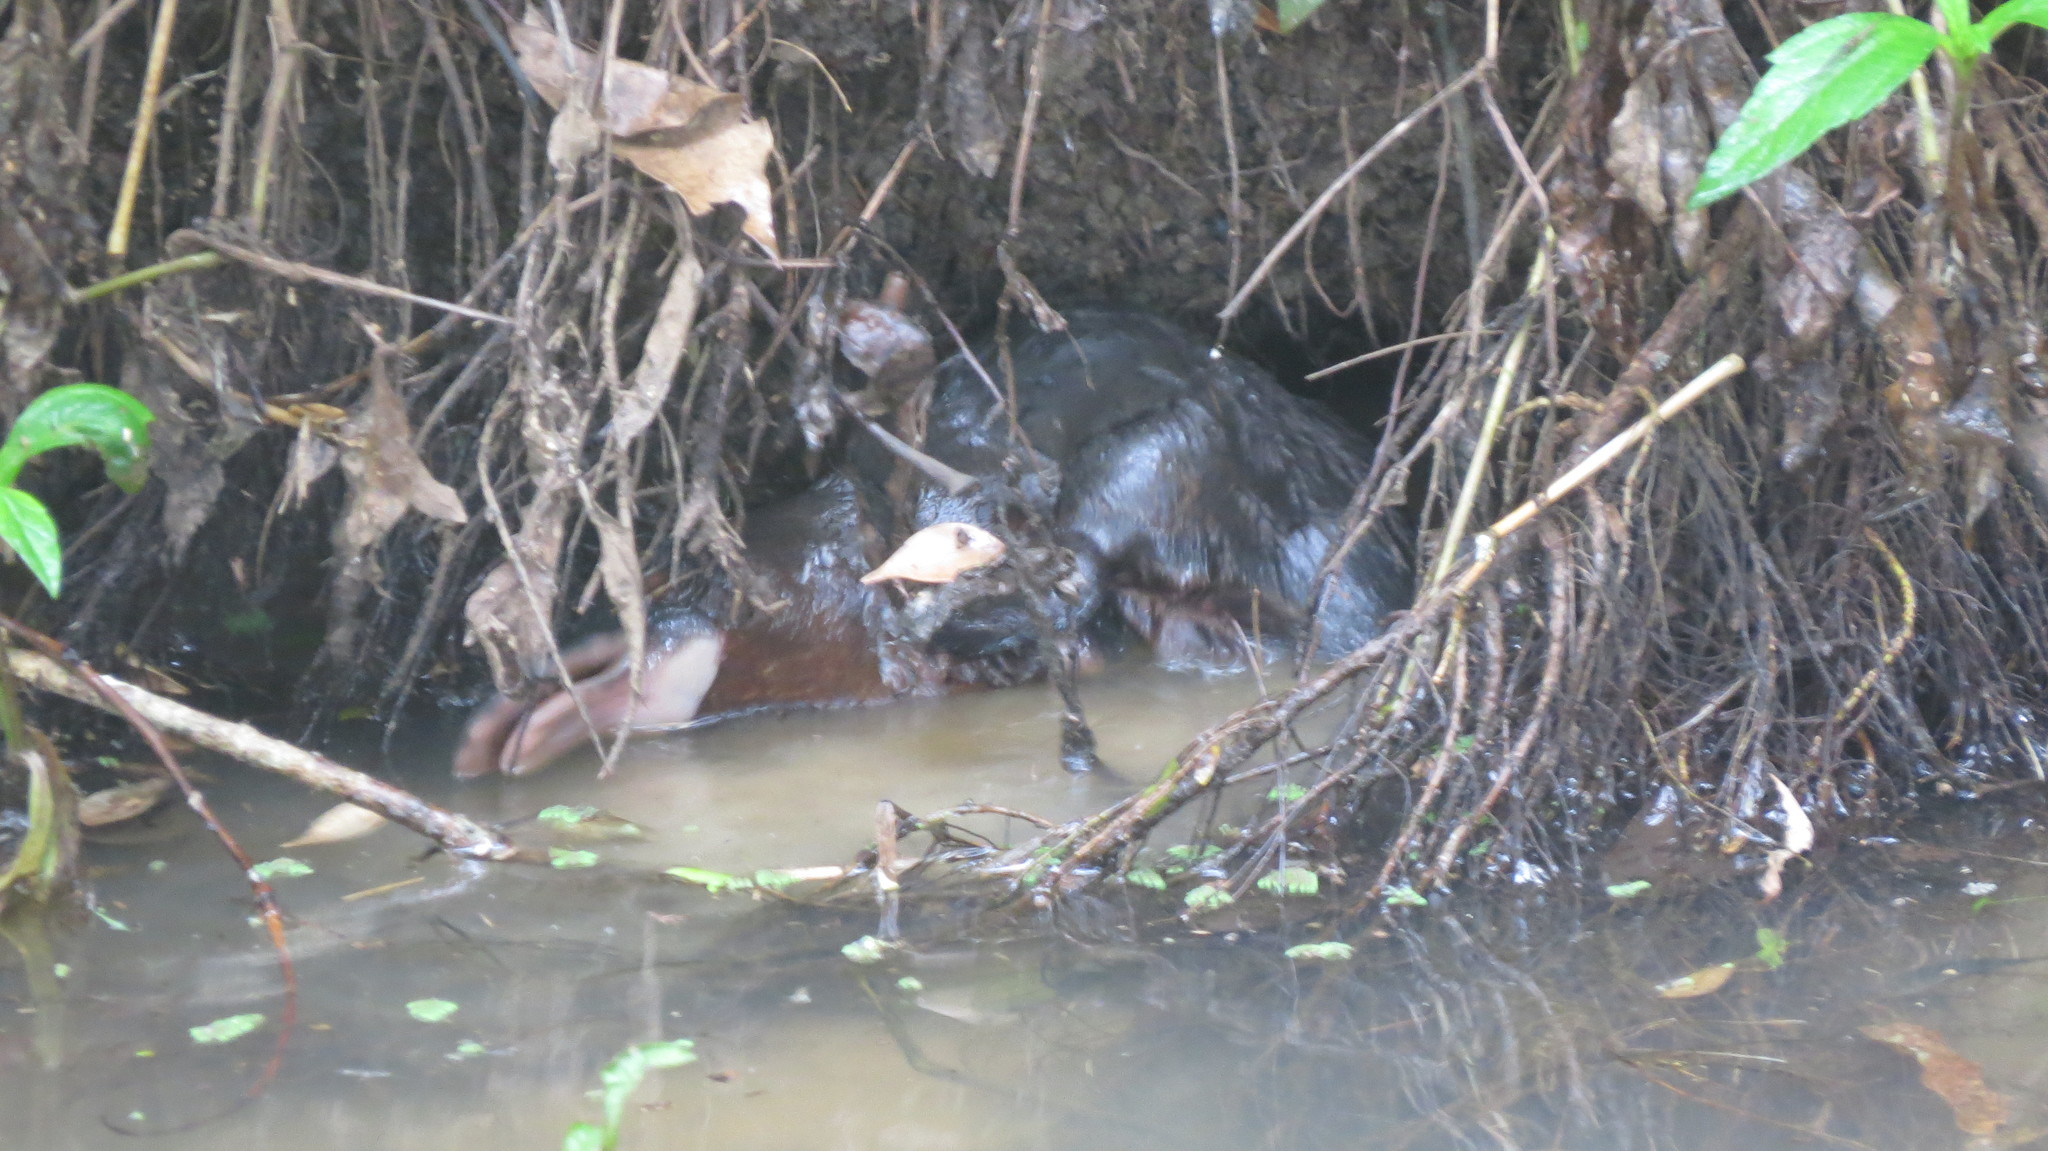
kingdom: Animalia
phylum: Chordata
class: Mammalia
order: Monotremata
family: Ornithorhynchidae
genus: Ornithorhynchus
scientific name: Ornithorhynchus anatinus
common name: Platypus
